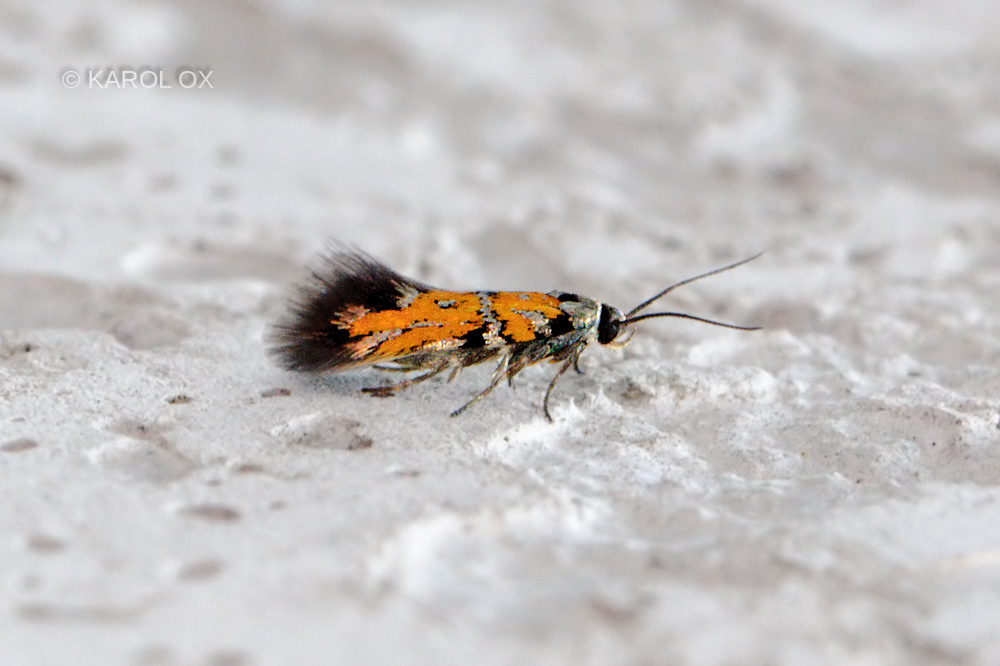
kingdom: Animalia
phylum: Arthropoda
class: Insecta
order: Lepidoptera
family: Gelechiidae
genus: Chrysoesthia
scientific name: Chrysoesthia drurella
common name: Flame neb
